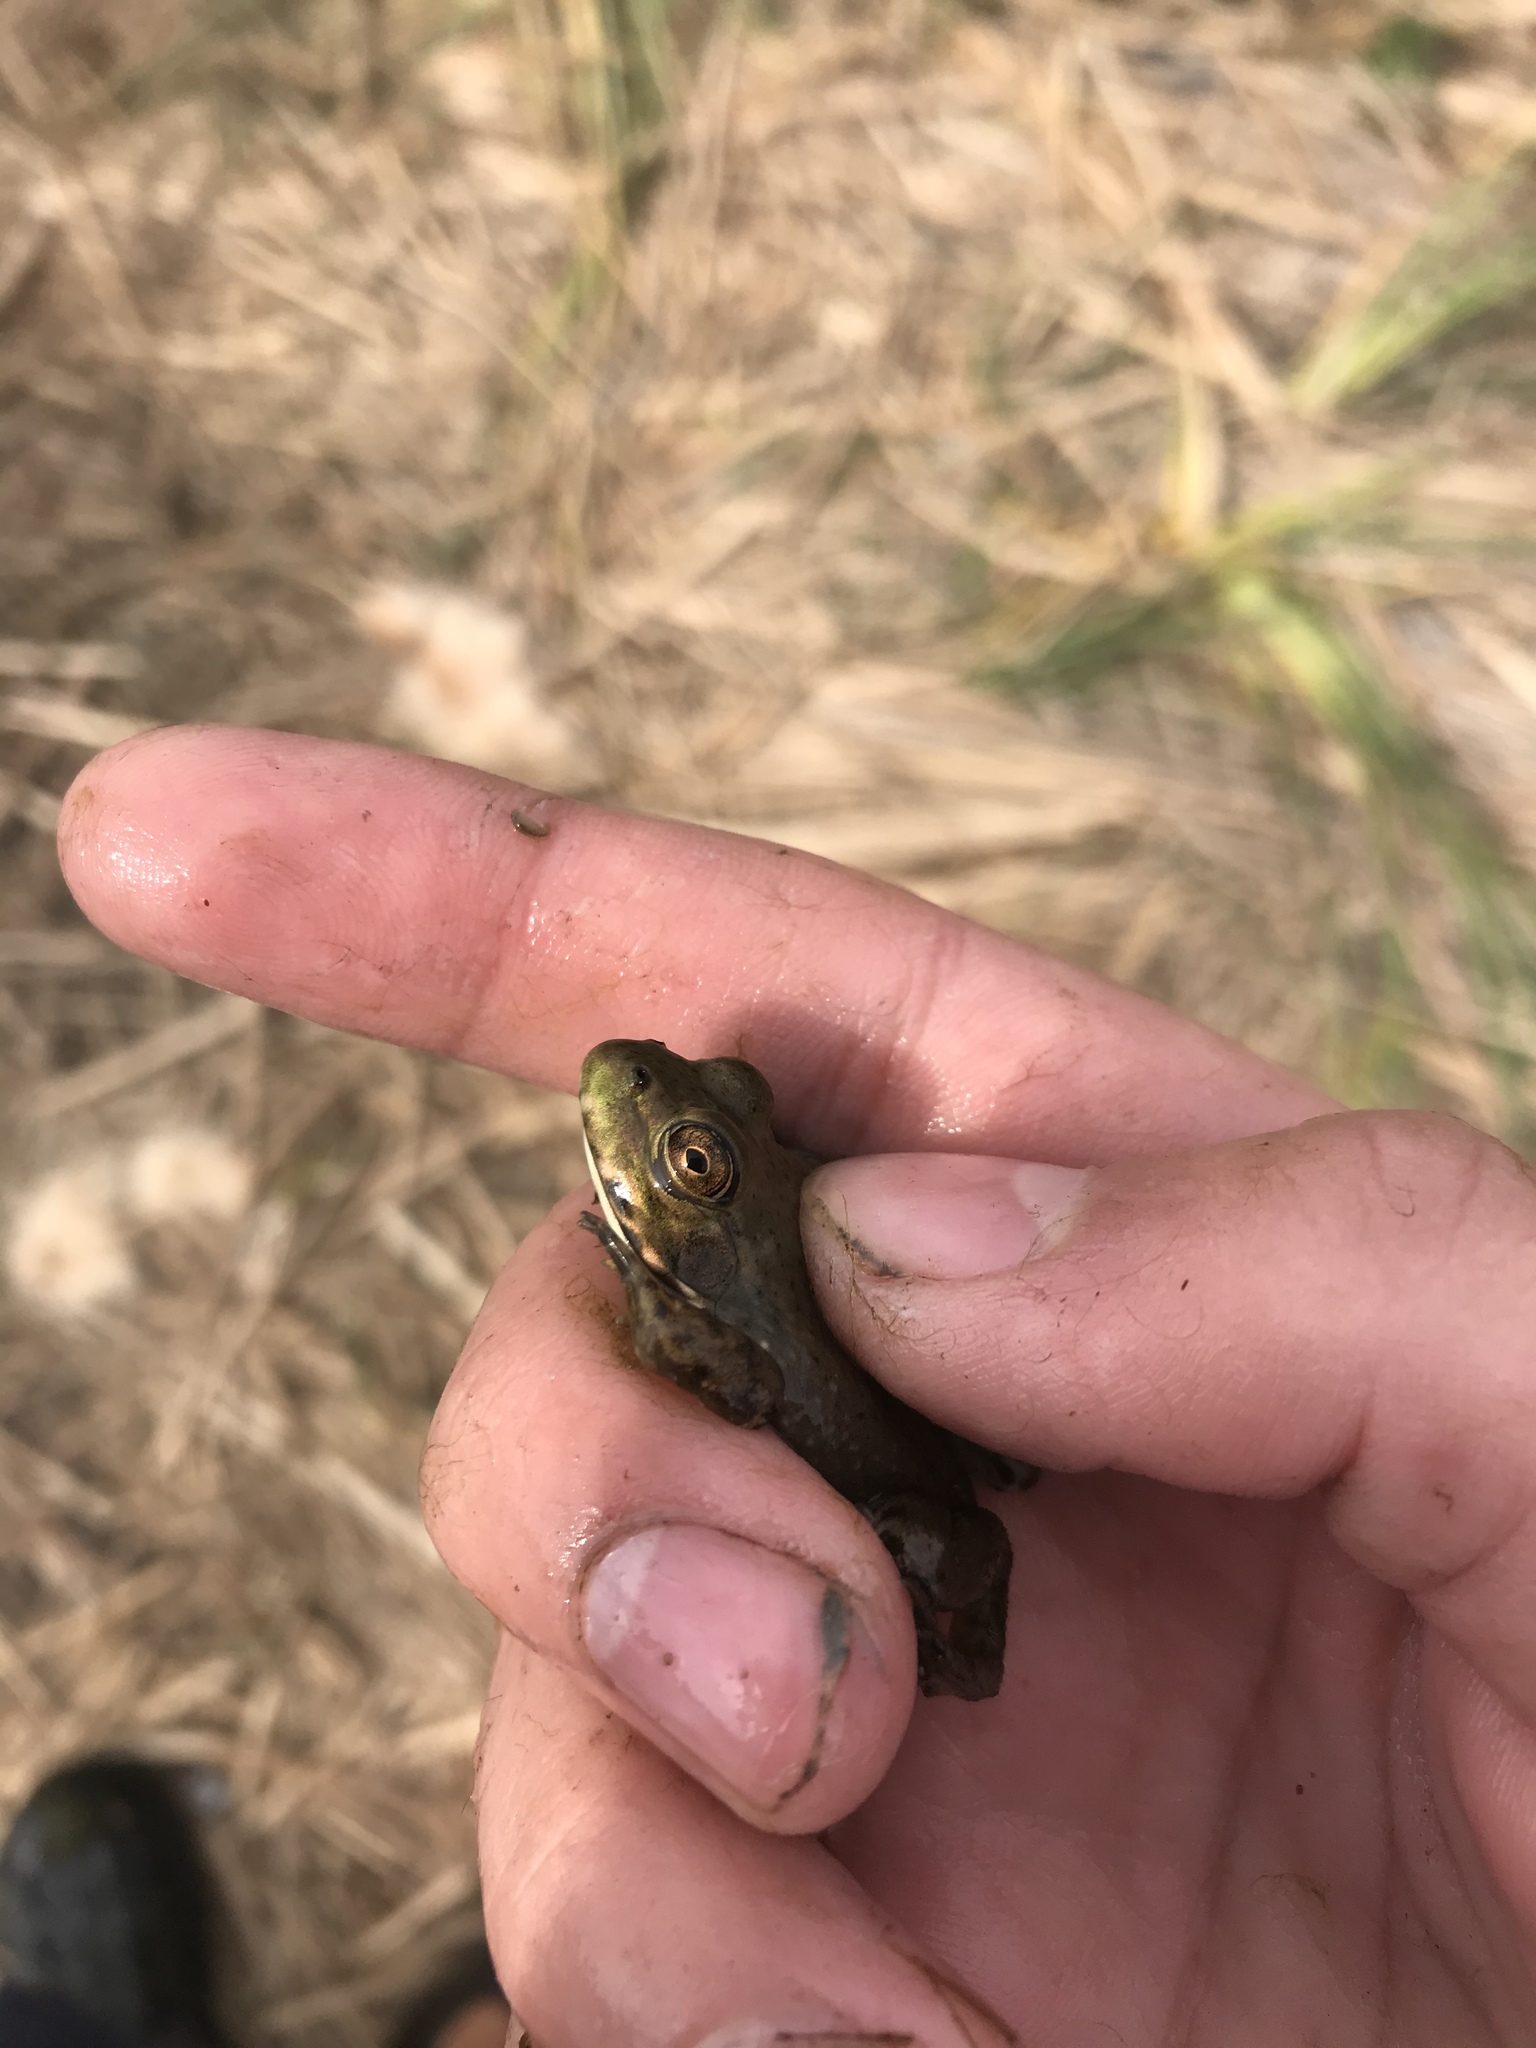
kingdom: Animalia
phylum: Chordata
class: Amphibia
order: Anura
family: Ranidae
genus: Lithobates
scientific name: Lithobates catesbeianus
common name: American bullfrog
